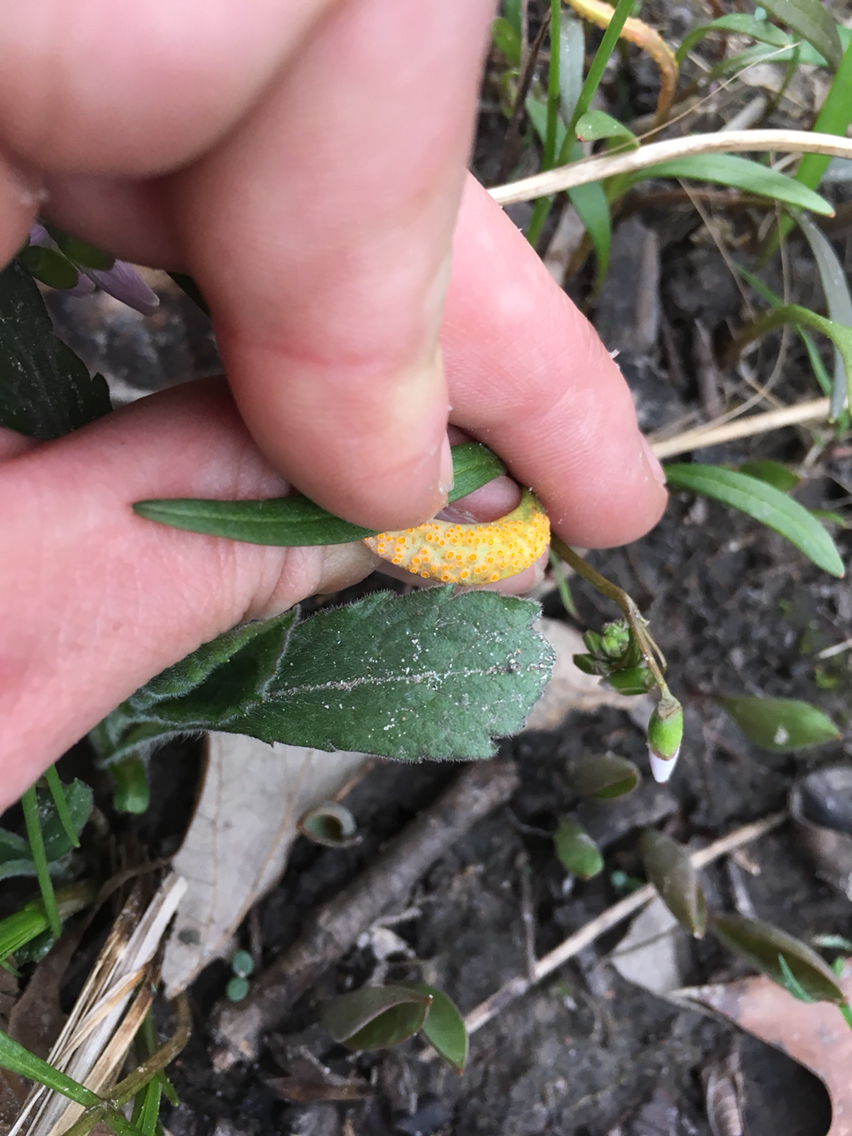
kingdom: Fungi
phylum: Basidiomycota
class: Pucciniomycetes
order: Pucciniales
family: Pucciniaceae
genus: Puccinia
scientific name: Puccinia mariae-wilsoniae
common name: Spring beauty rust
